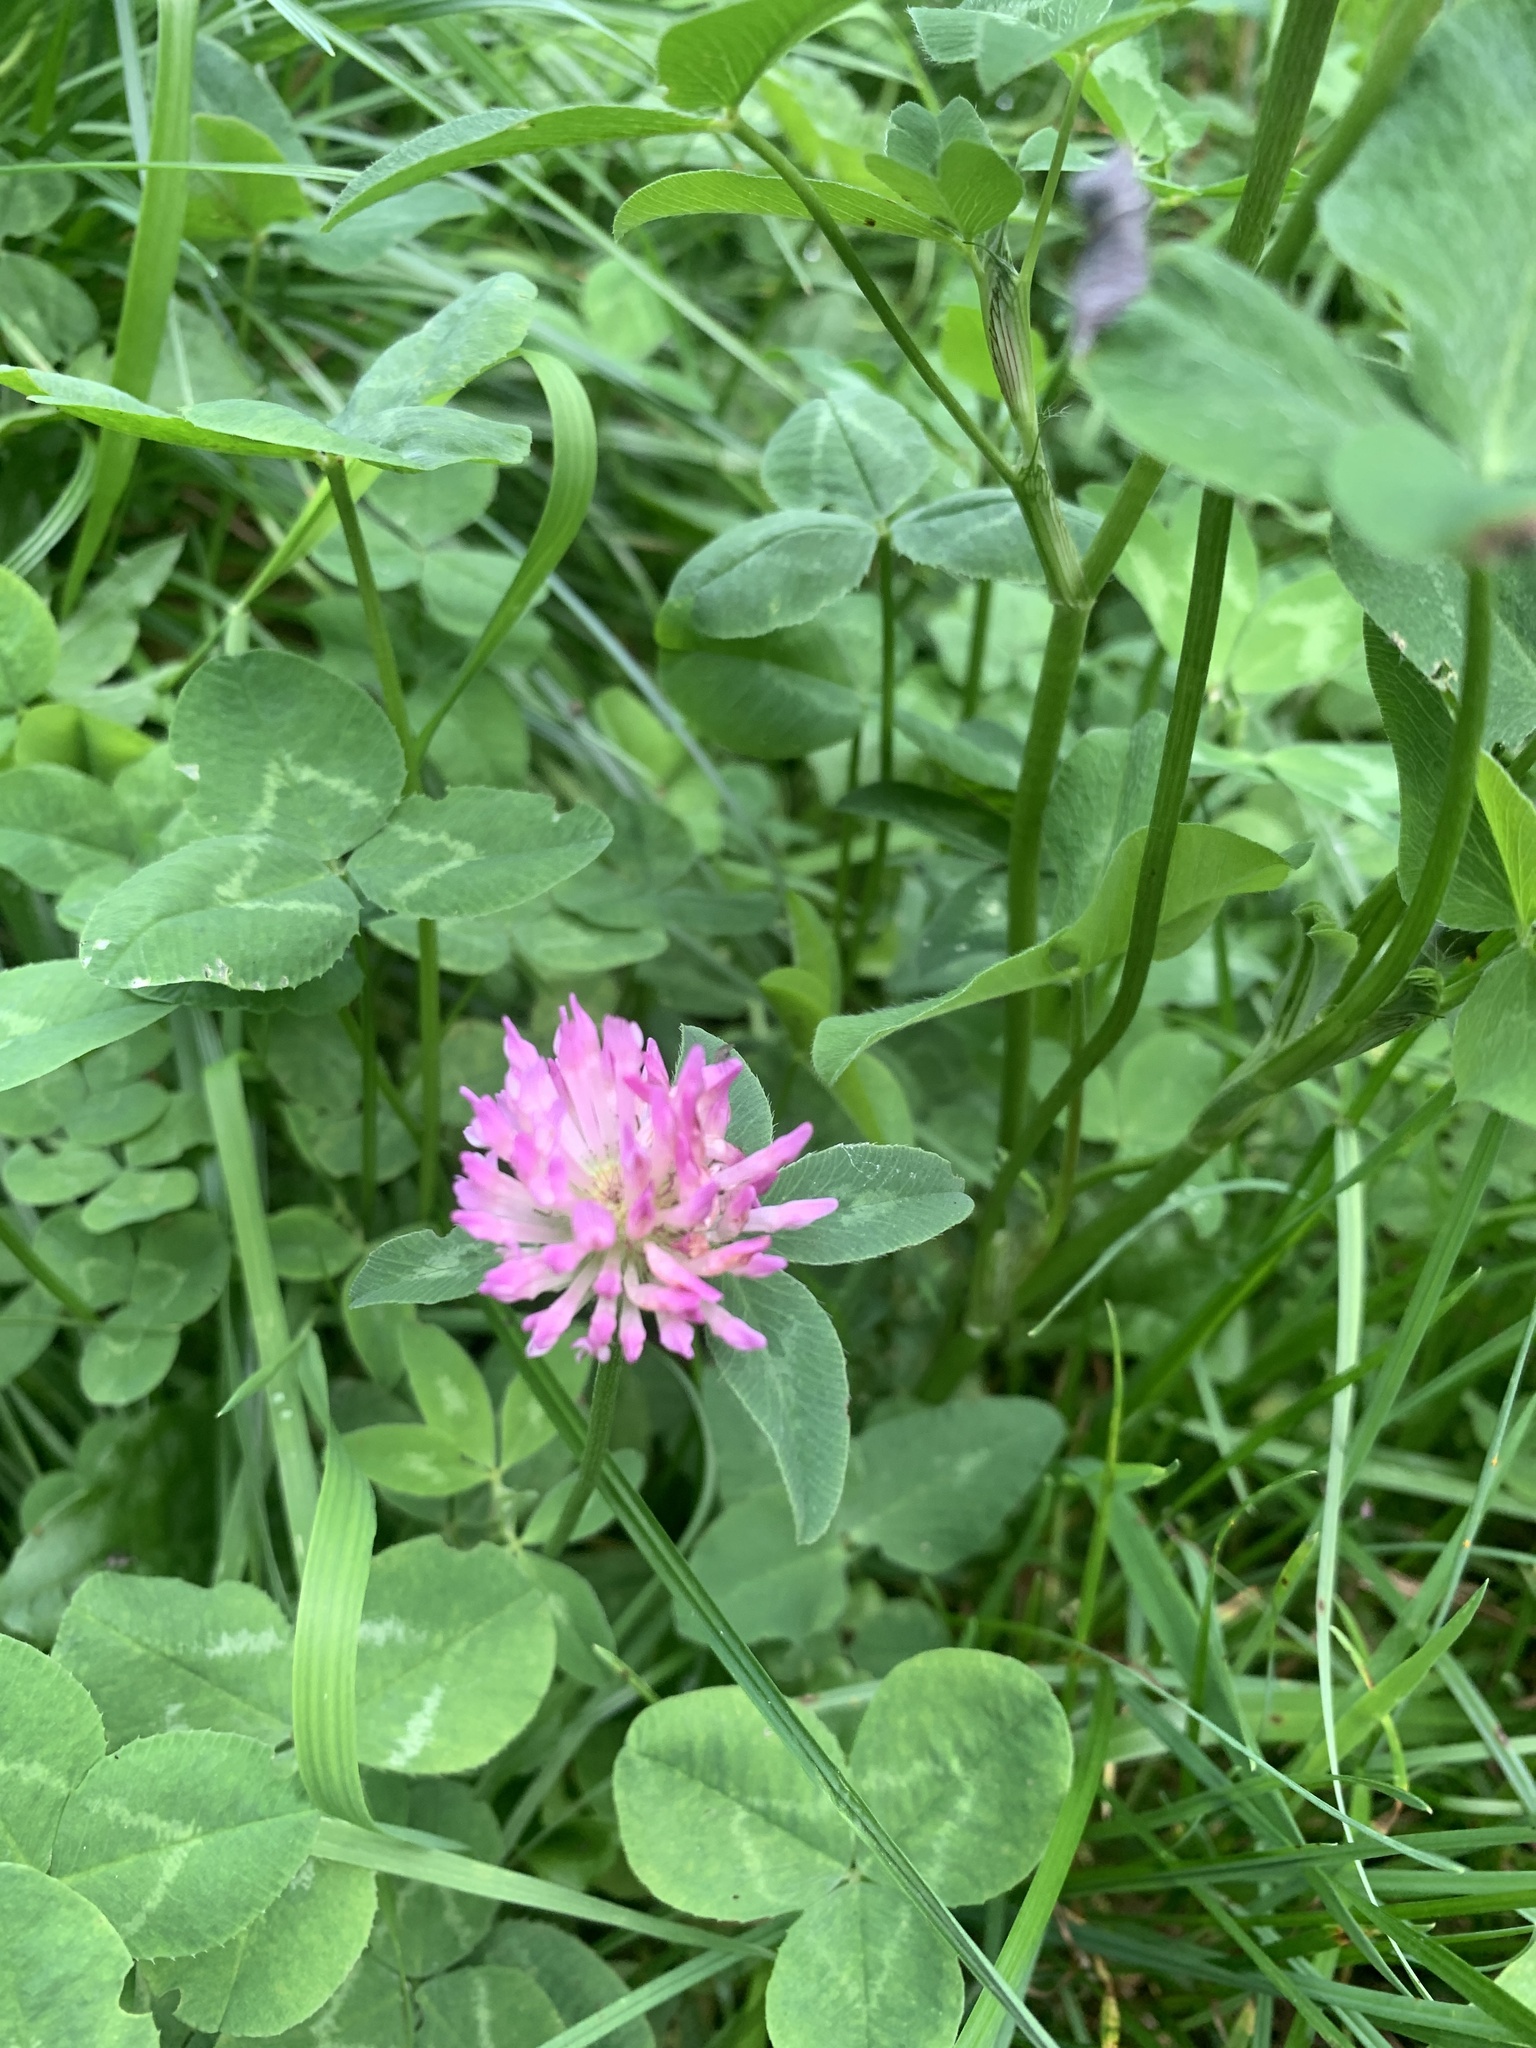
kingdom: Plantae
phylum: Tracheophyta
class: Magnoliopsida
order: Fabales
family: Fabaceae
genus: Trifolium
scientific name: Trifolium pratense
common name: Red clover
